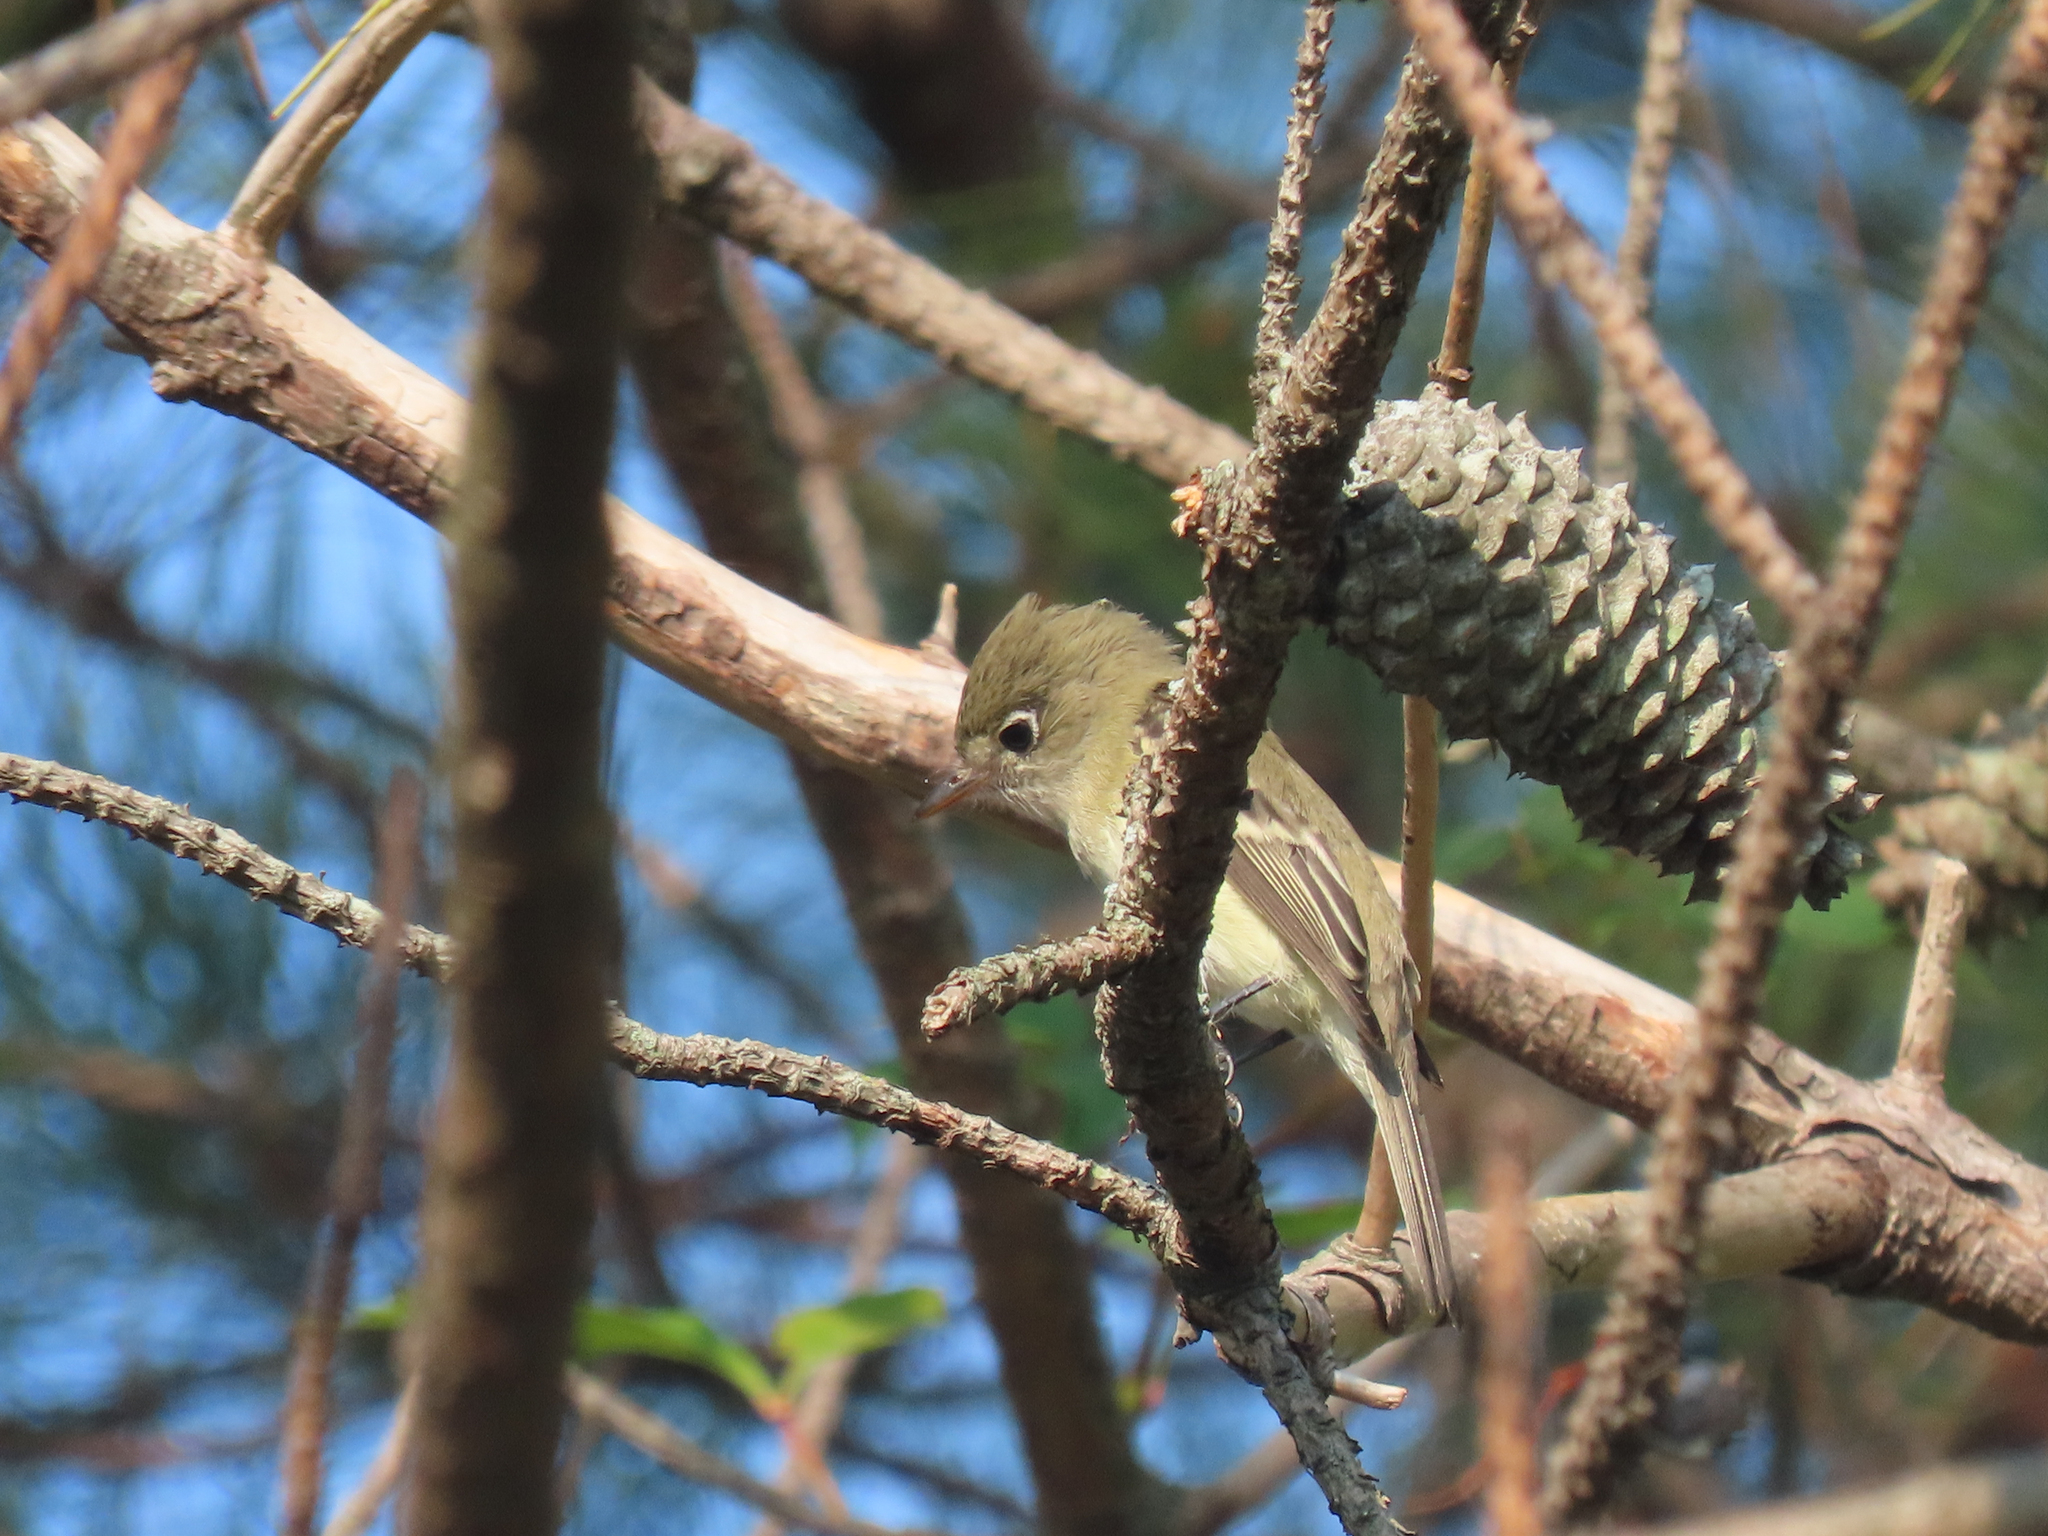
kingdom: Animalia
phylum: Chordata
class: Aves
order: Passeriformes
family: Tyrannidae
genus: Empidonax
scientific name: Empidonax minimus
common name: Least flycatcher
